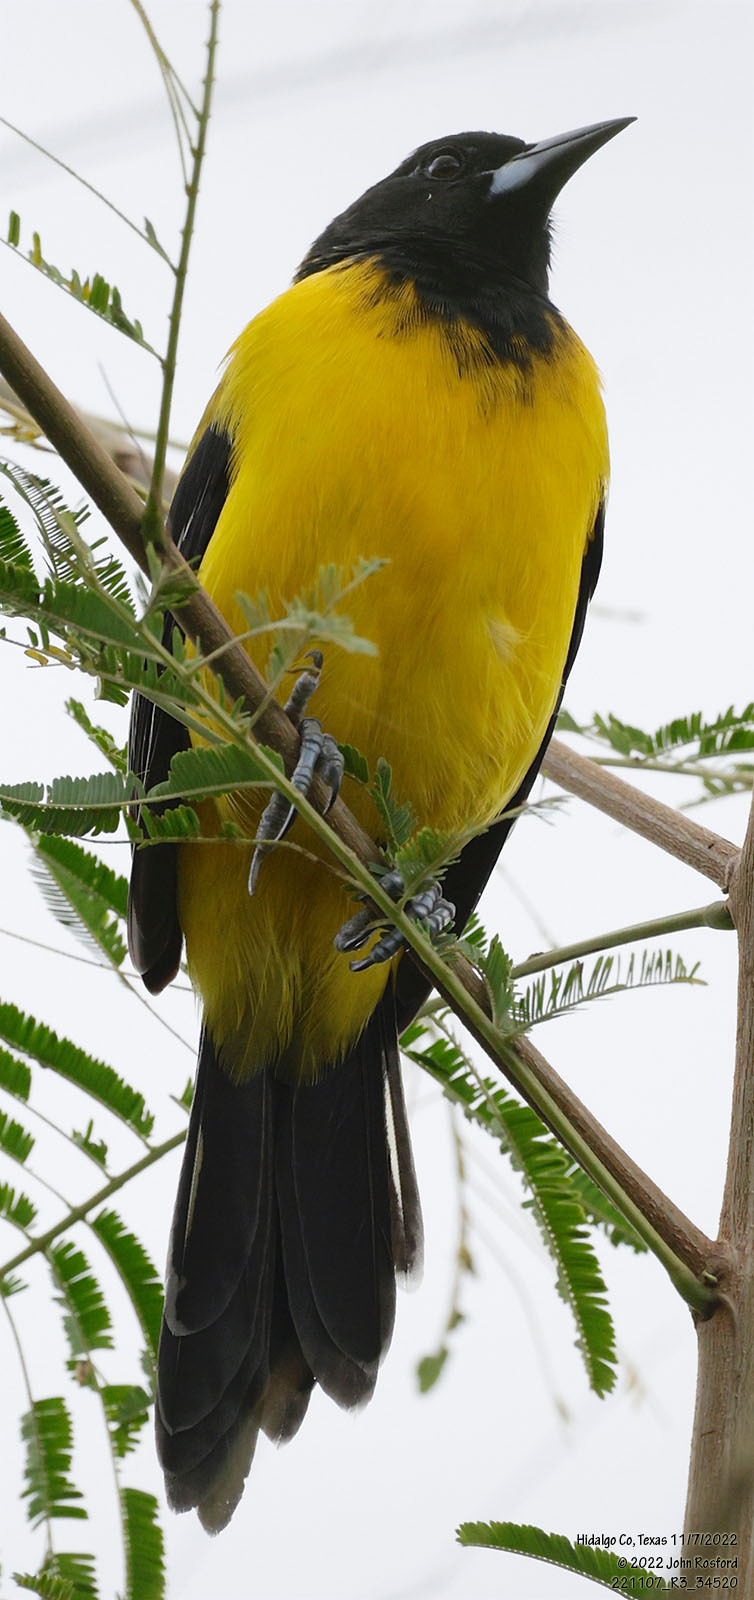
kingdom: Animalia
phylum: Chordata
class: Aves
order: Passeriformes
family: Icteridae
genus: Icterus
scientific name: Icterus graduacauda
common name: Audubon's oriole
